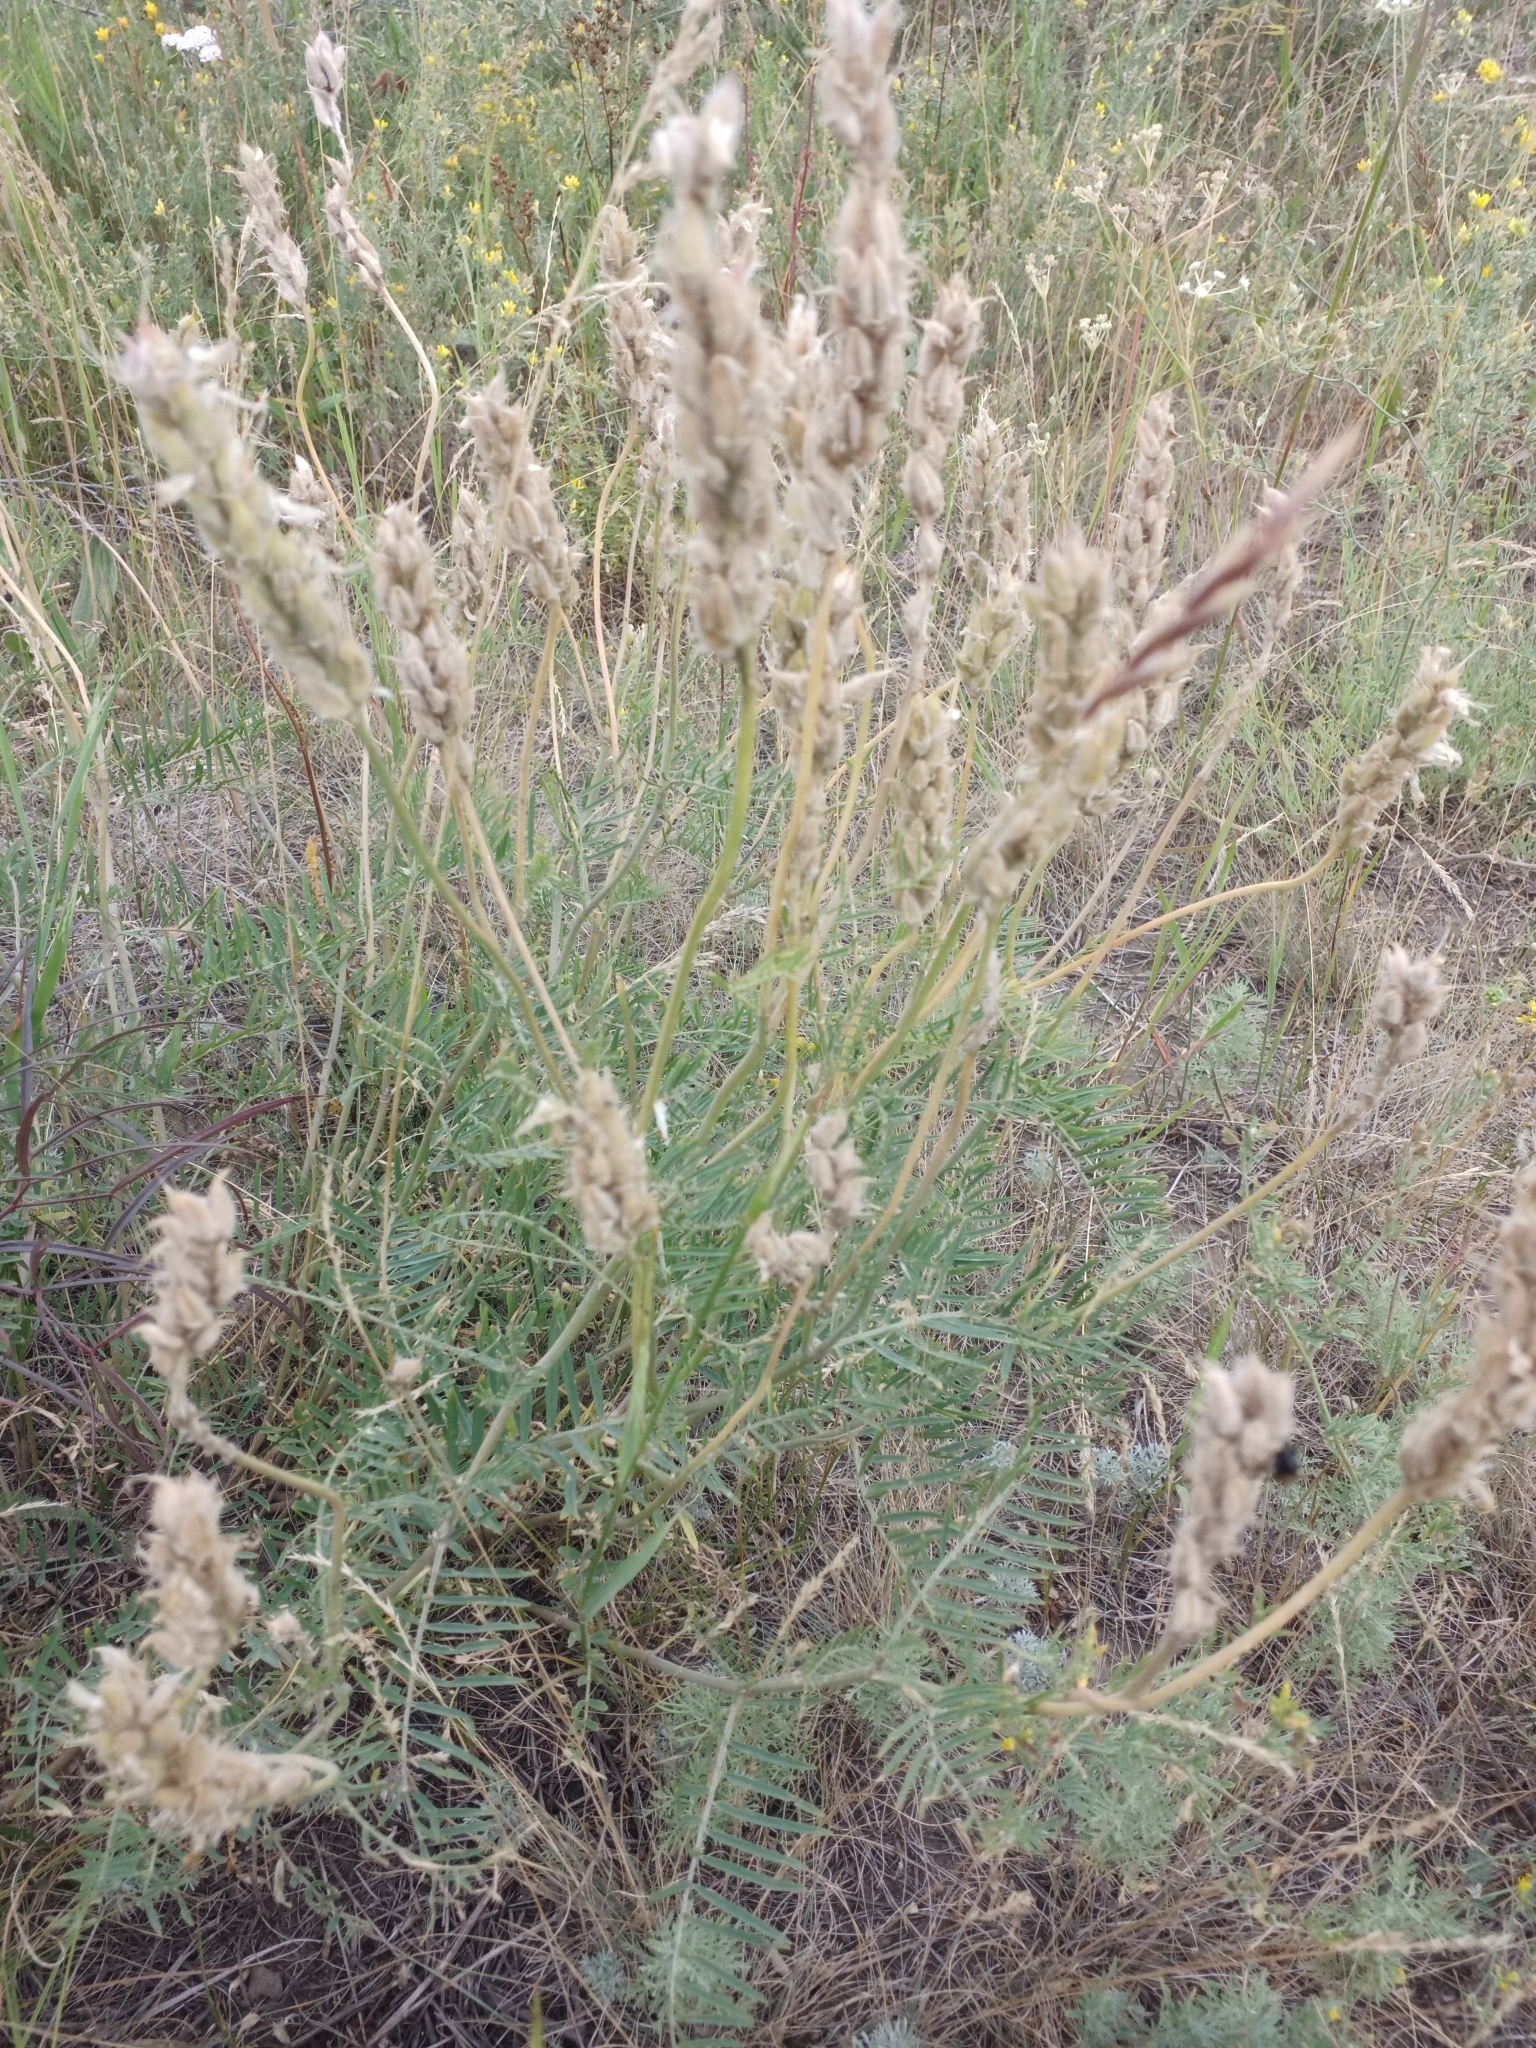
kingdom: Plantae
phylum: Tracheophyta
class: Magnoliopsida
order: Fabales
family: Fabaceae
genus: Astragalus
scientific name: Astragalus onobrychis
